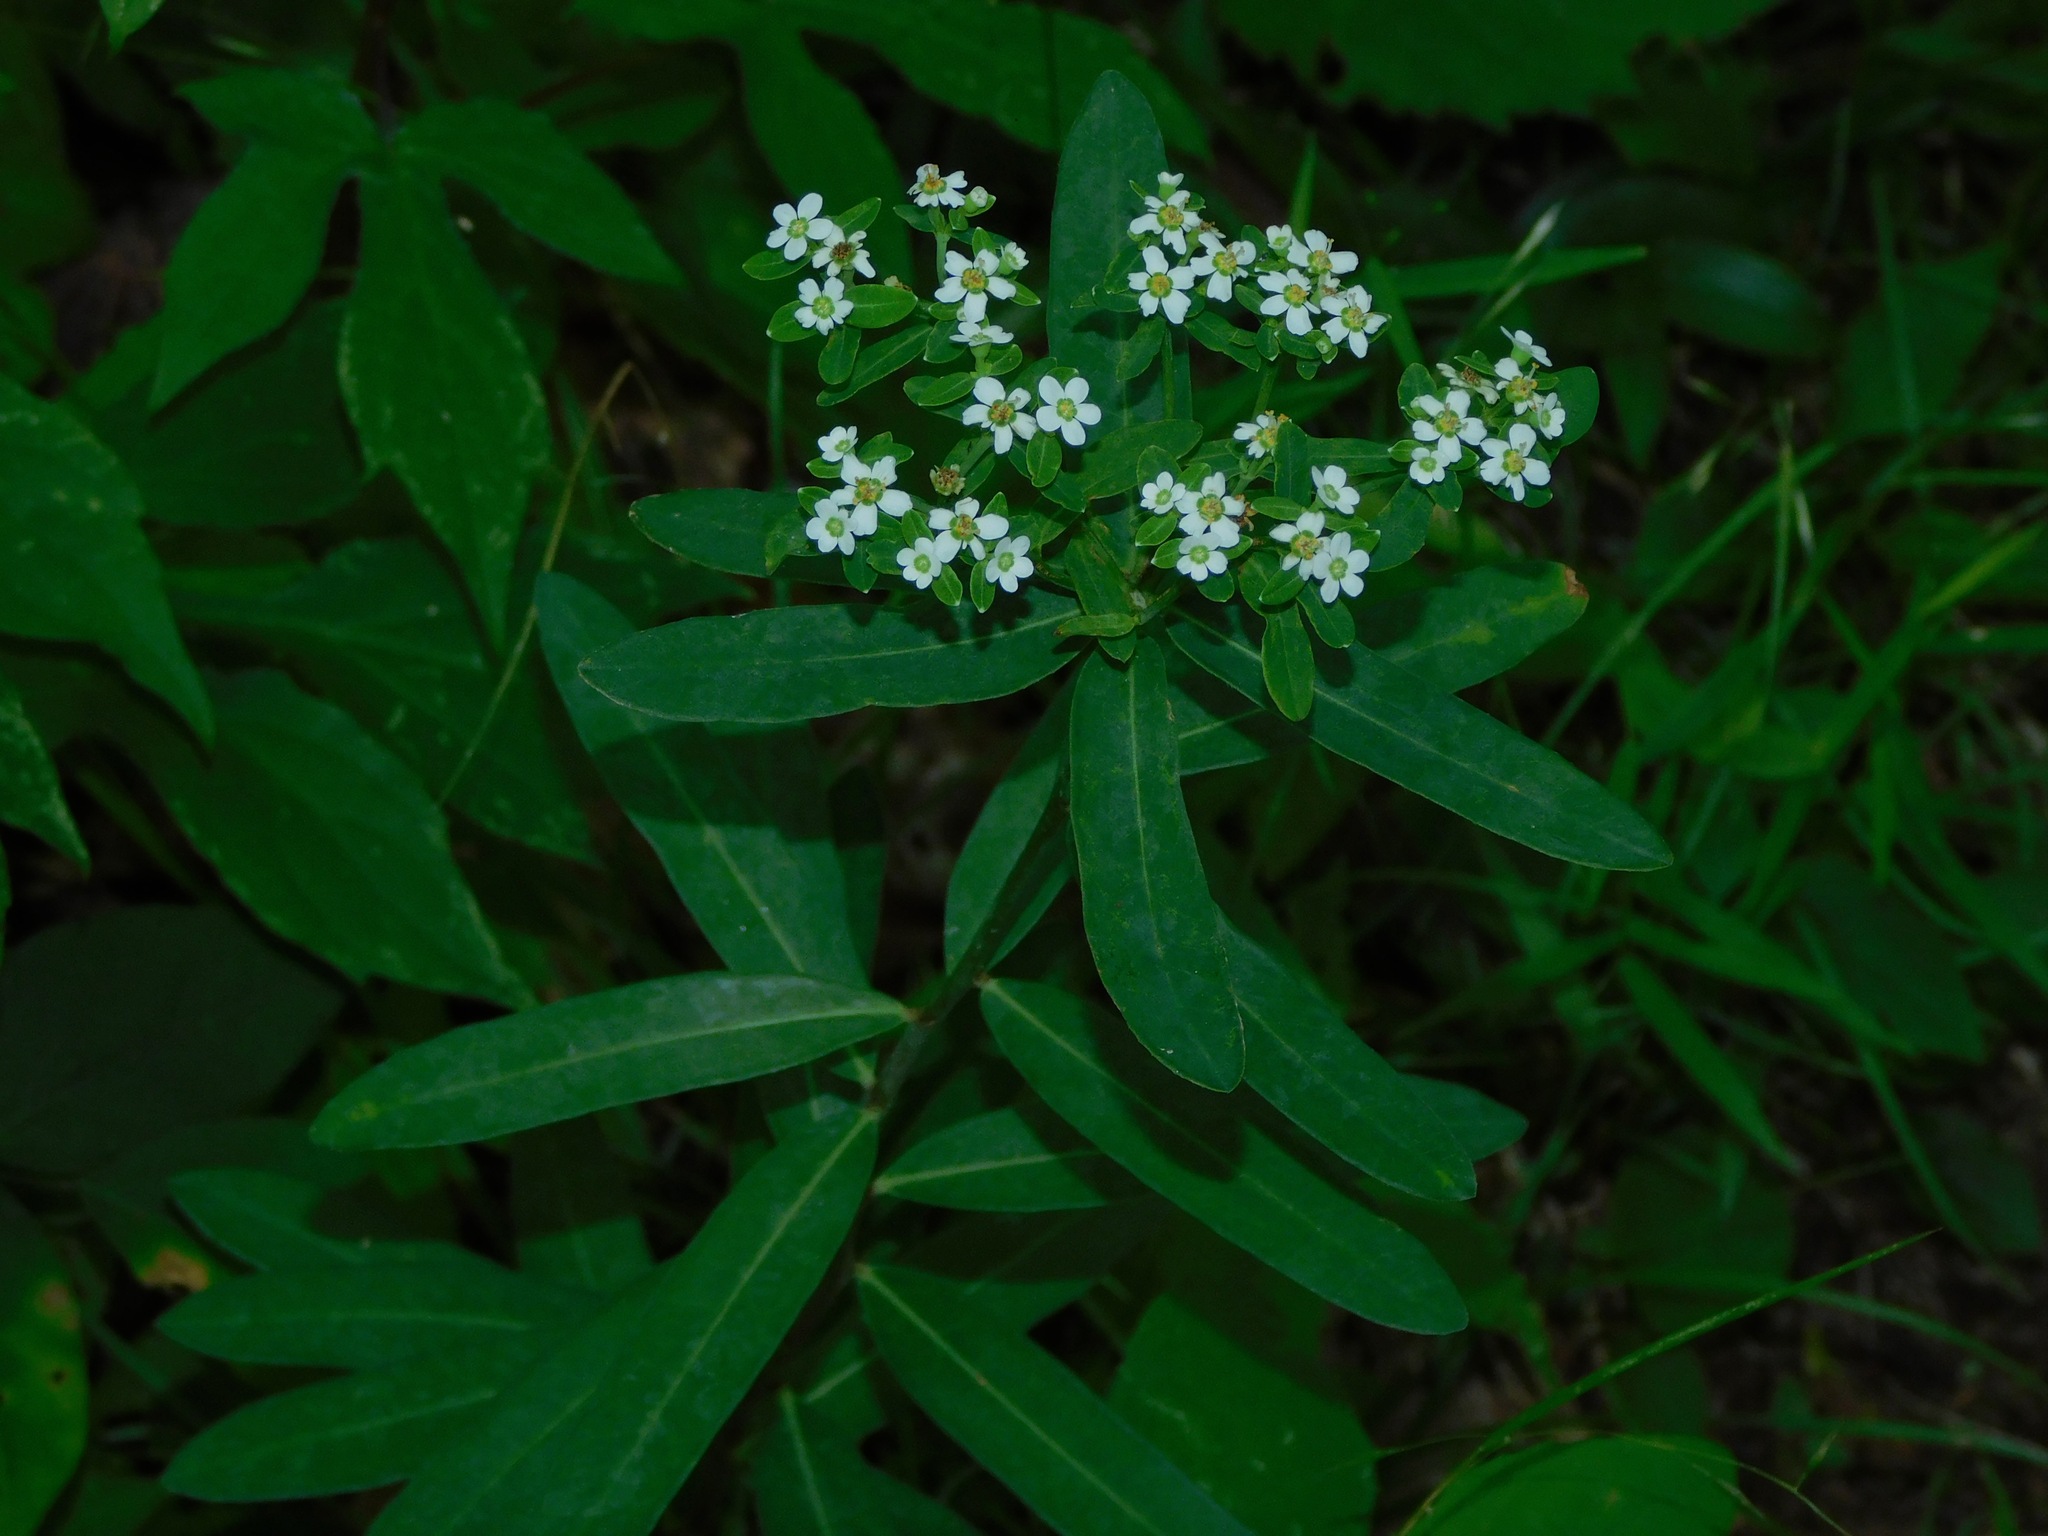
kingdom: Plantae
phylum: Tracheophyta
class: Magnoliopsida
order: Malpighiales
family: Euphorbiaceae
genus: Euphorbia
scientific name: Euphorbia corollata
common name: Flowering spurge
